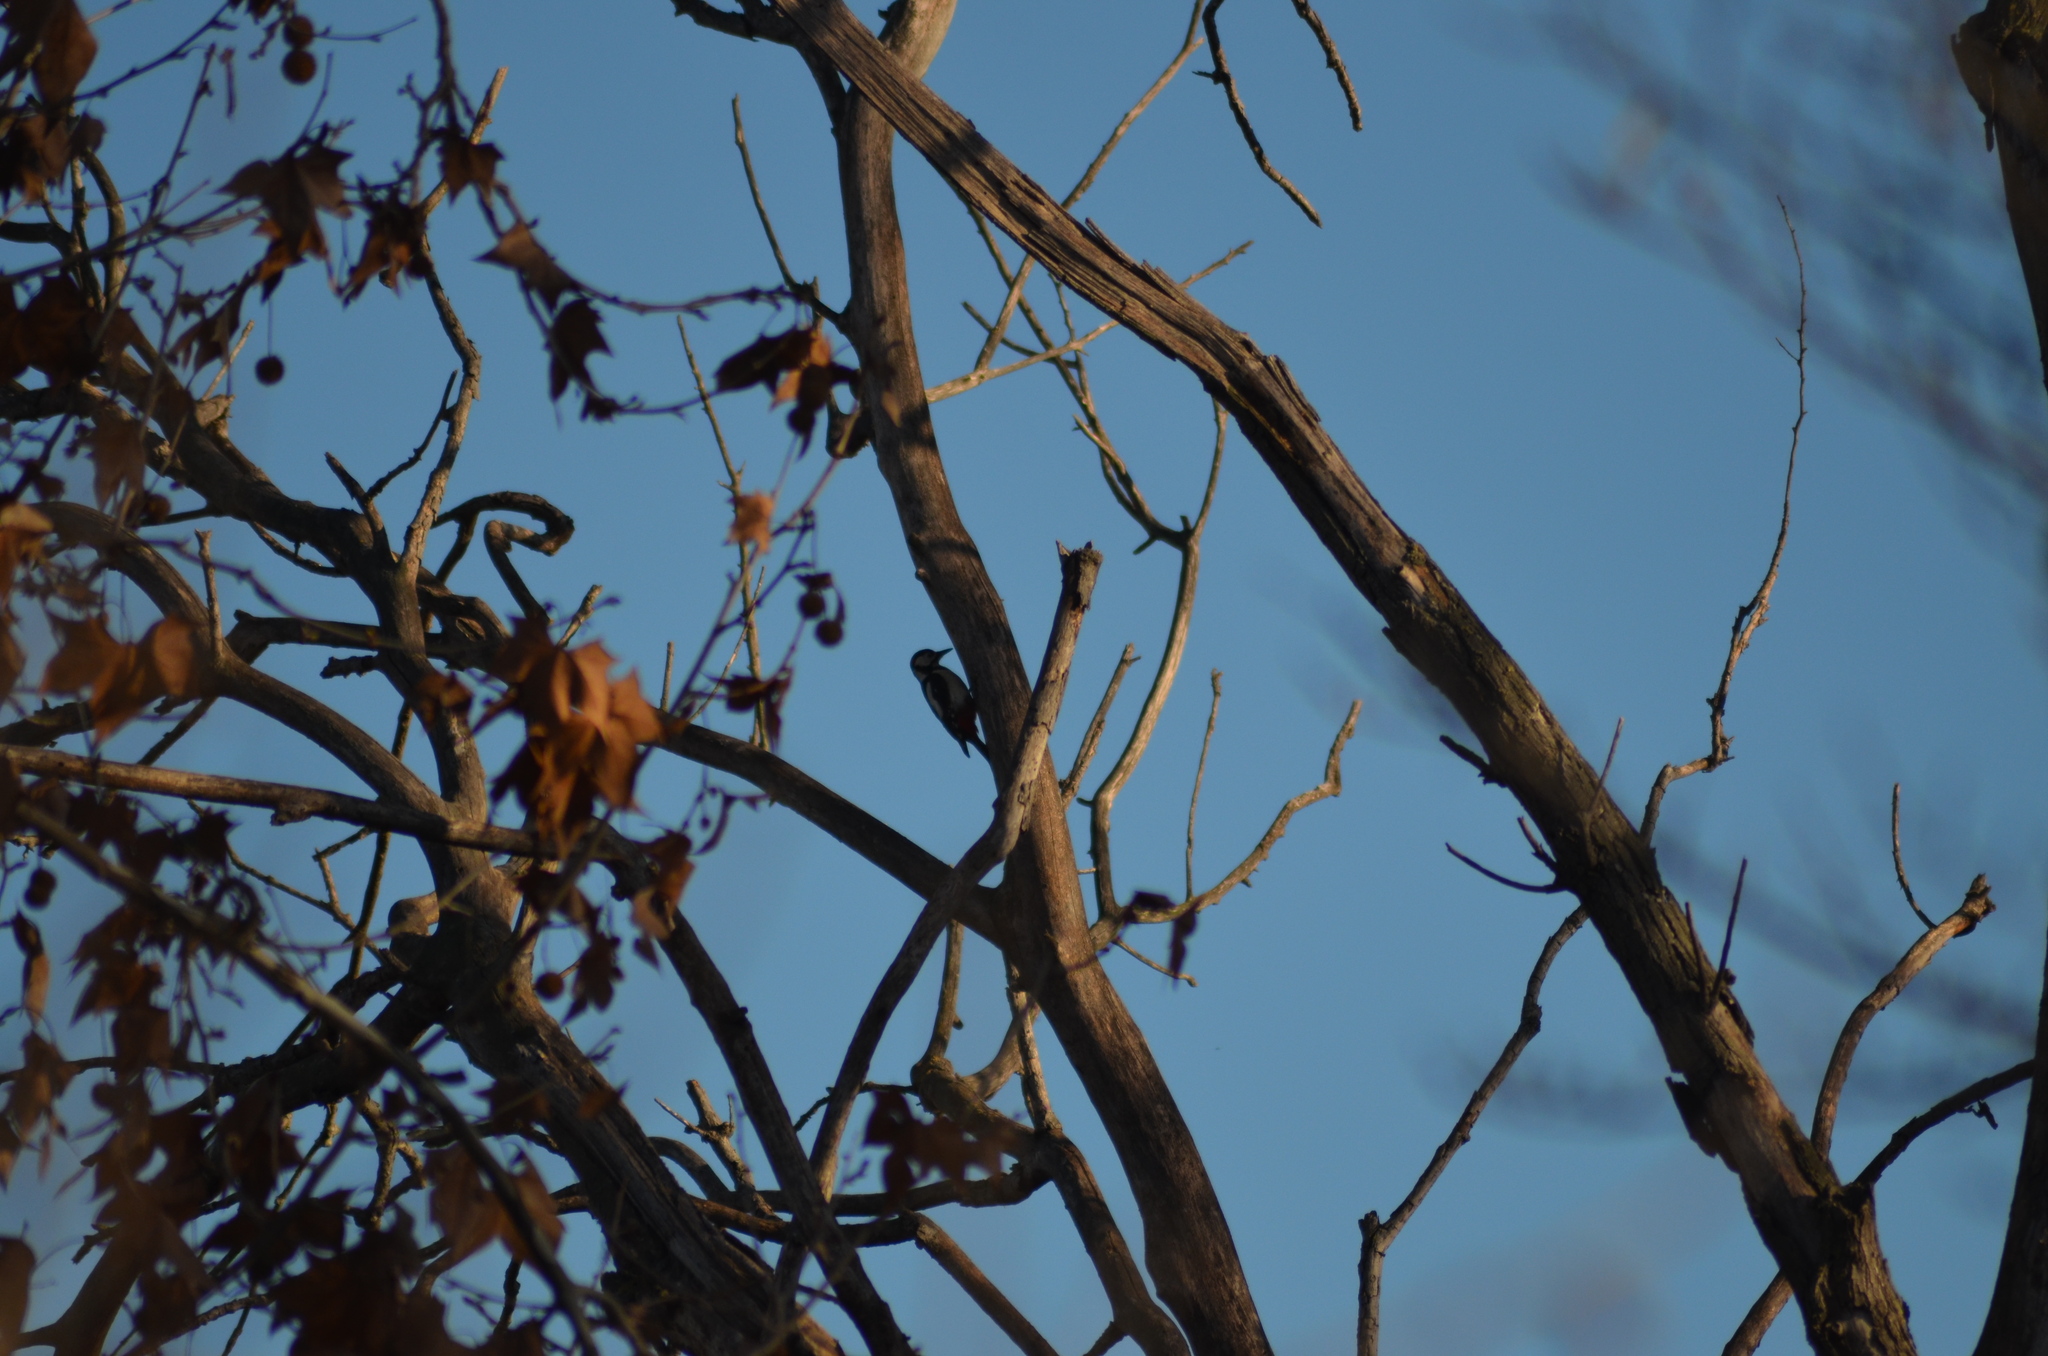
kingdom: Animalia
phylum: Chordata
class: Aves
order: Piciformes
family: Picidae
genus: Dendrocopos
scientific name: Dendrocopos major
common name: Great spotted woodpecker
